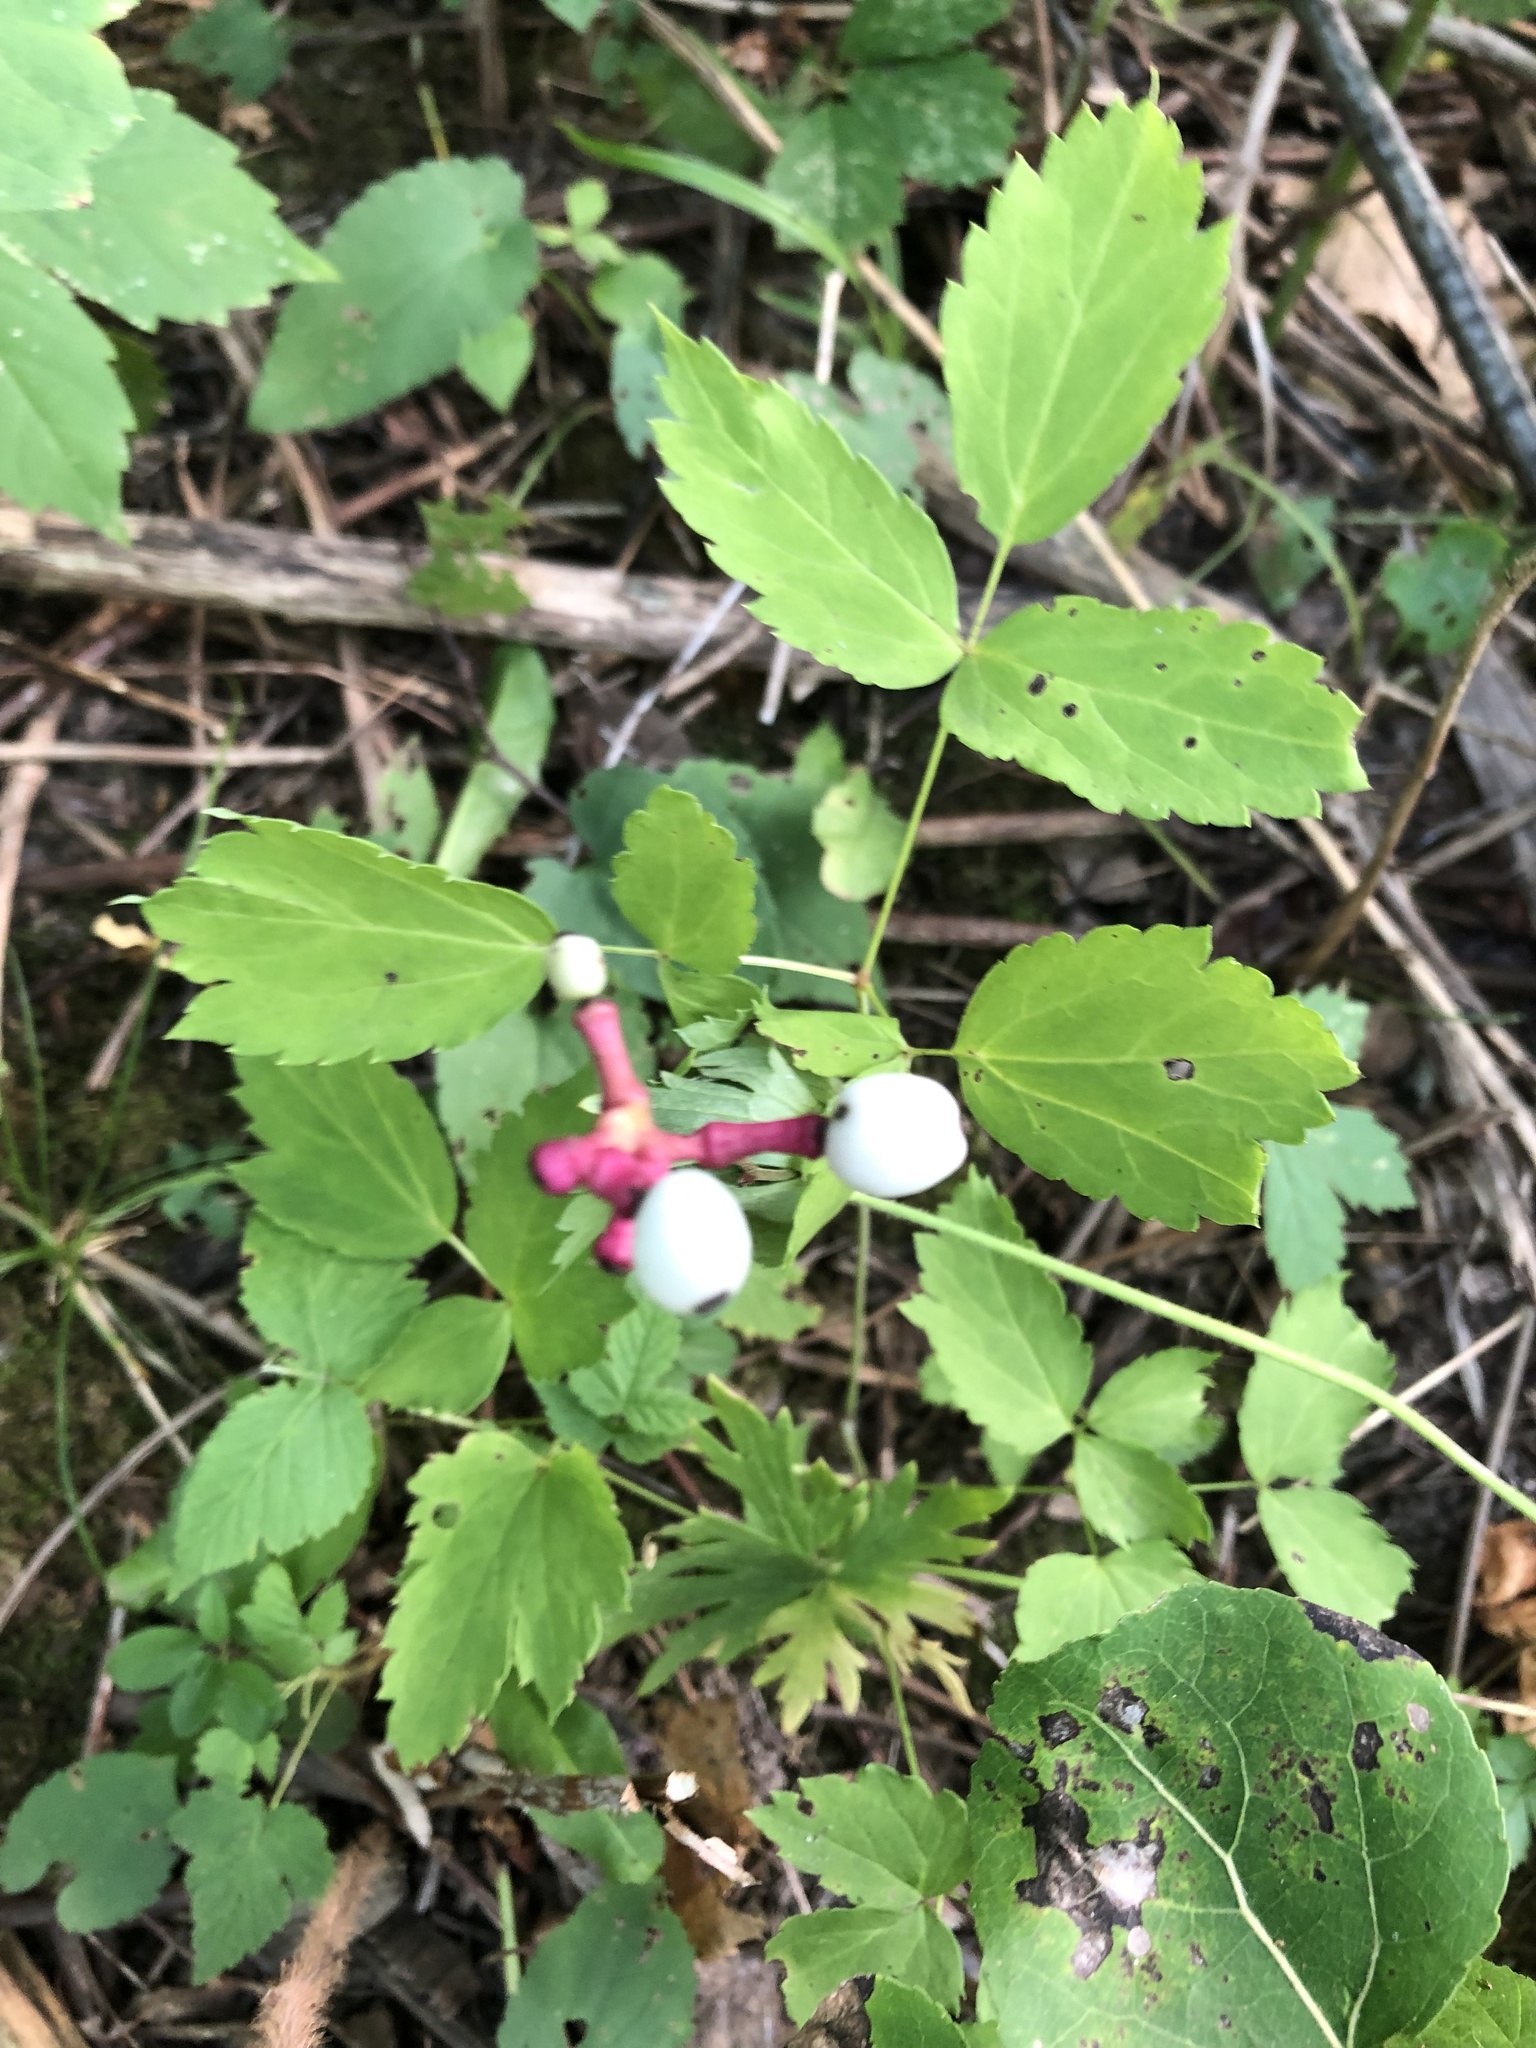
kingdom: Plantae
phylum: Tracheophyta
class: Magnoliopsida
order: Ranunculales
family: Ranunculaceae
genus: Actaea
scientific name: Actaea pachypoda
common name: Doll's-eyes
